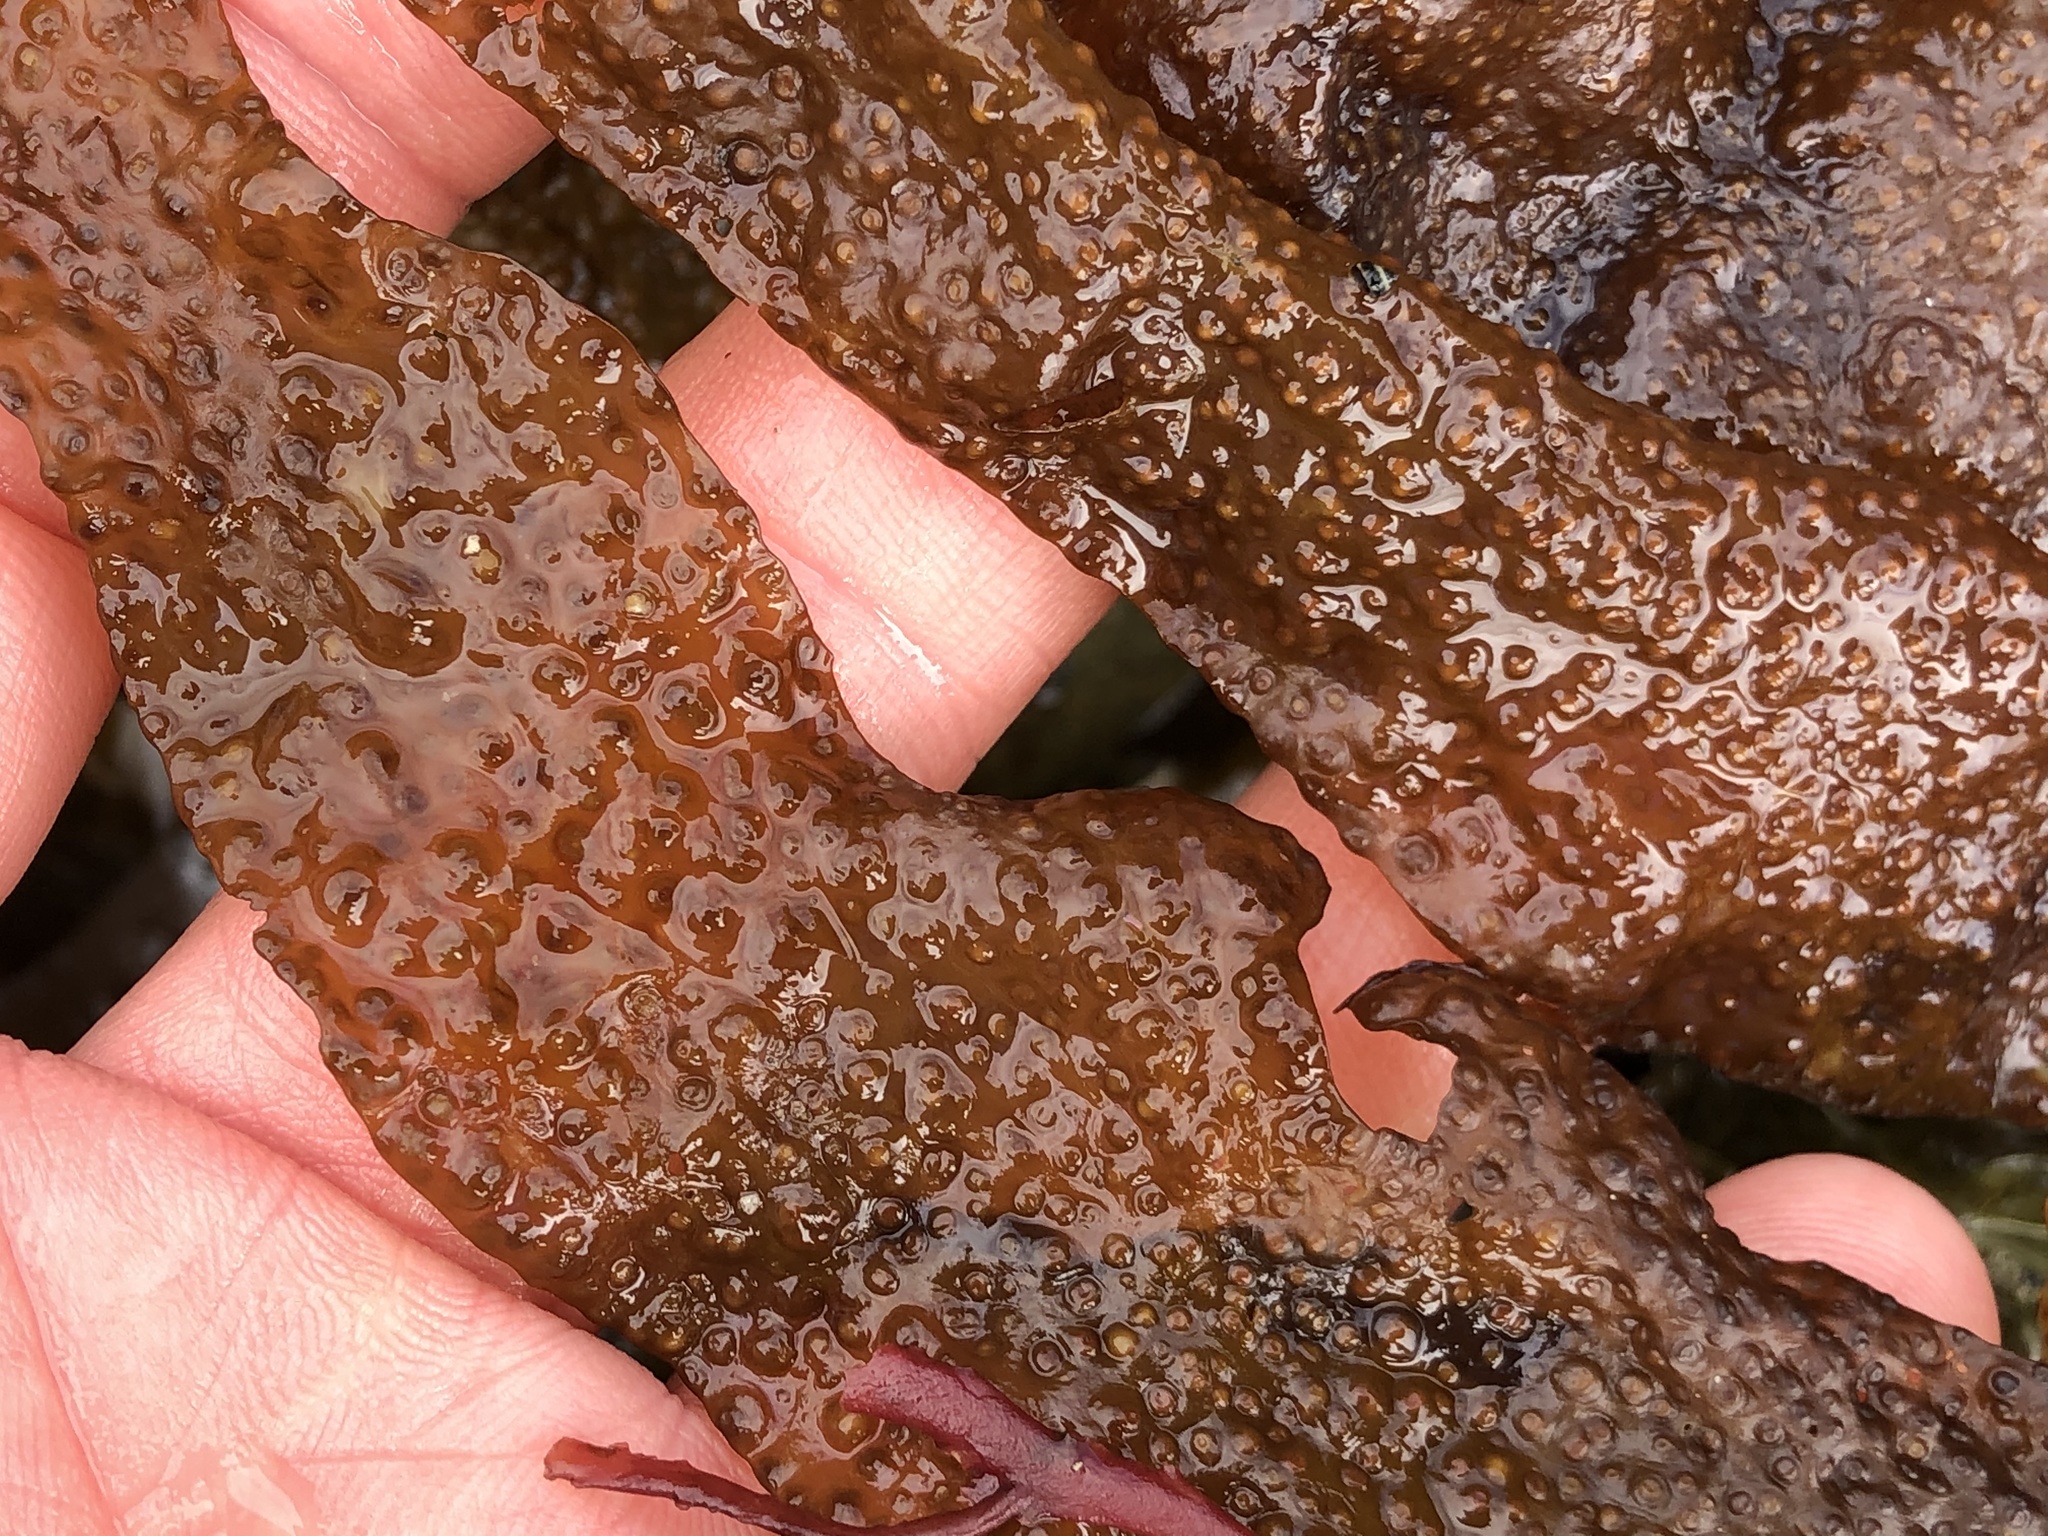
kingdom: Plantae
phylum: Rhodophyta
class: Florideophyceae
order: Gigartinales
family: Gigartinaceae
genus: Mazzaella
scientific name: Mazzaella oregona
